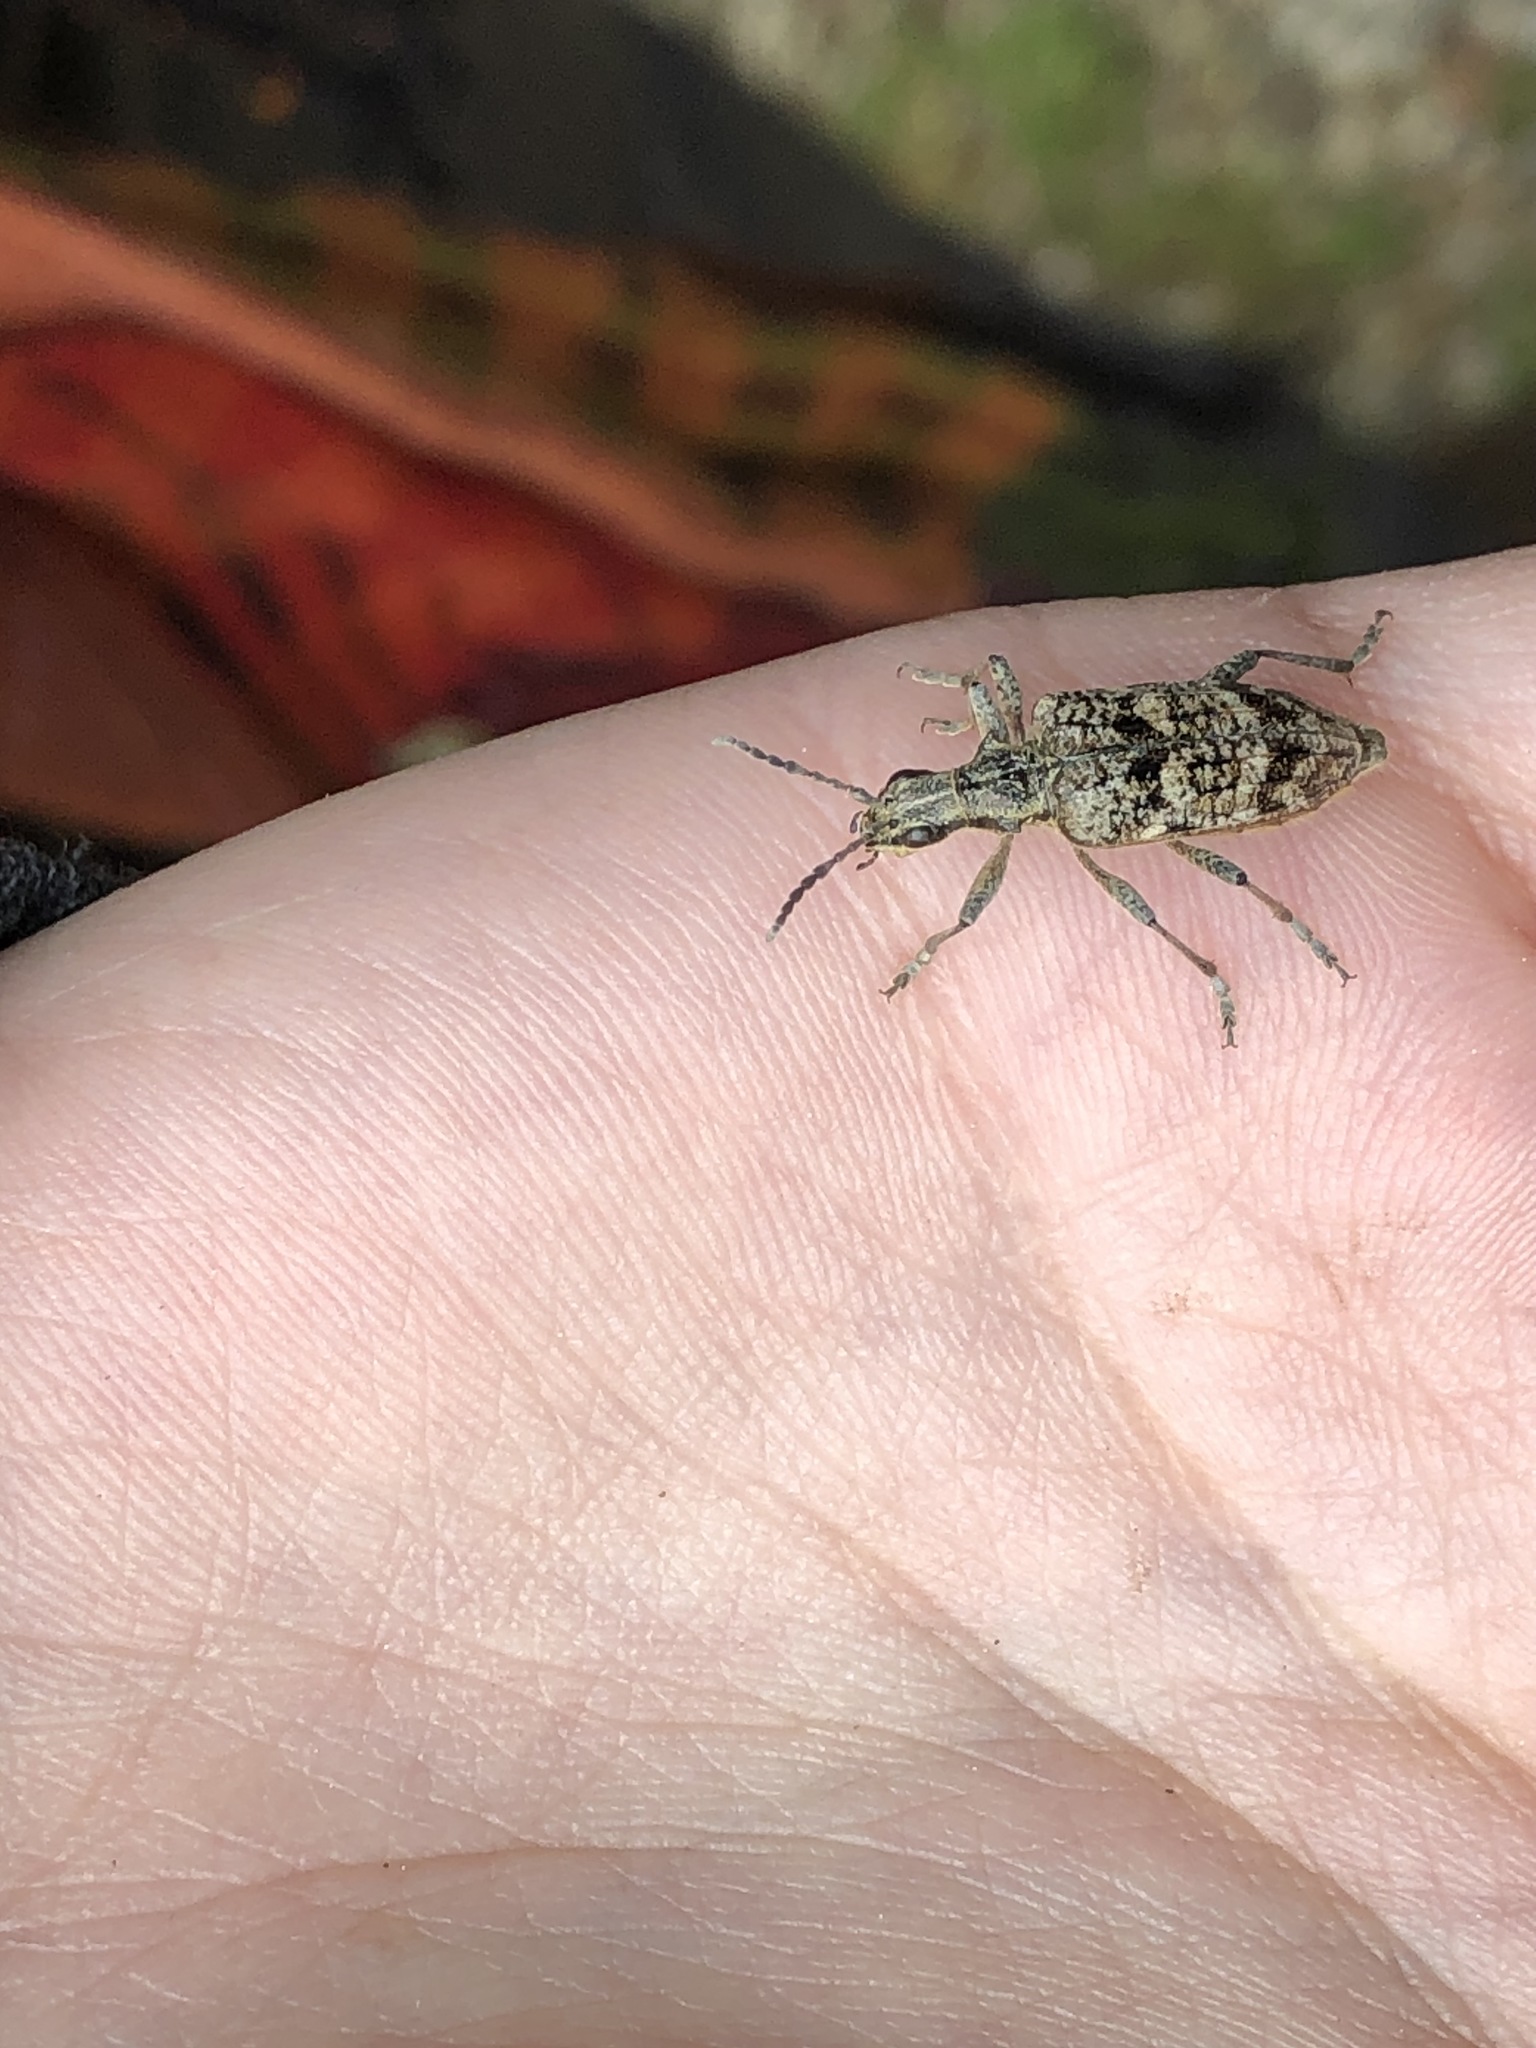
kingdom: Animalia
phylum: Arthropoda
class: Insecta
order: Coleoptera
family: Cerambycidae
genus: Rhagium
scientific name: Rhagium inquisitor
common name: Ribbed pine borer
